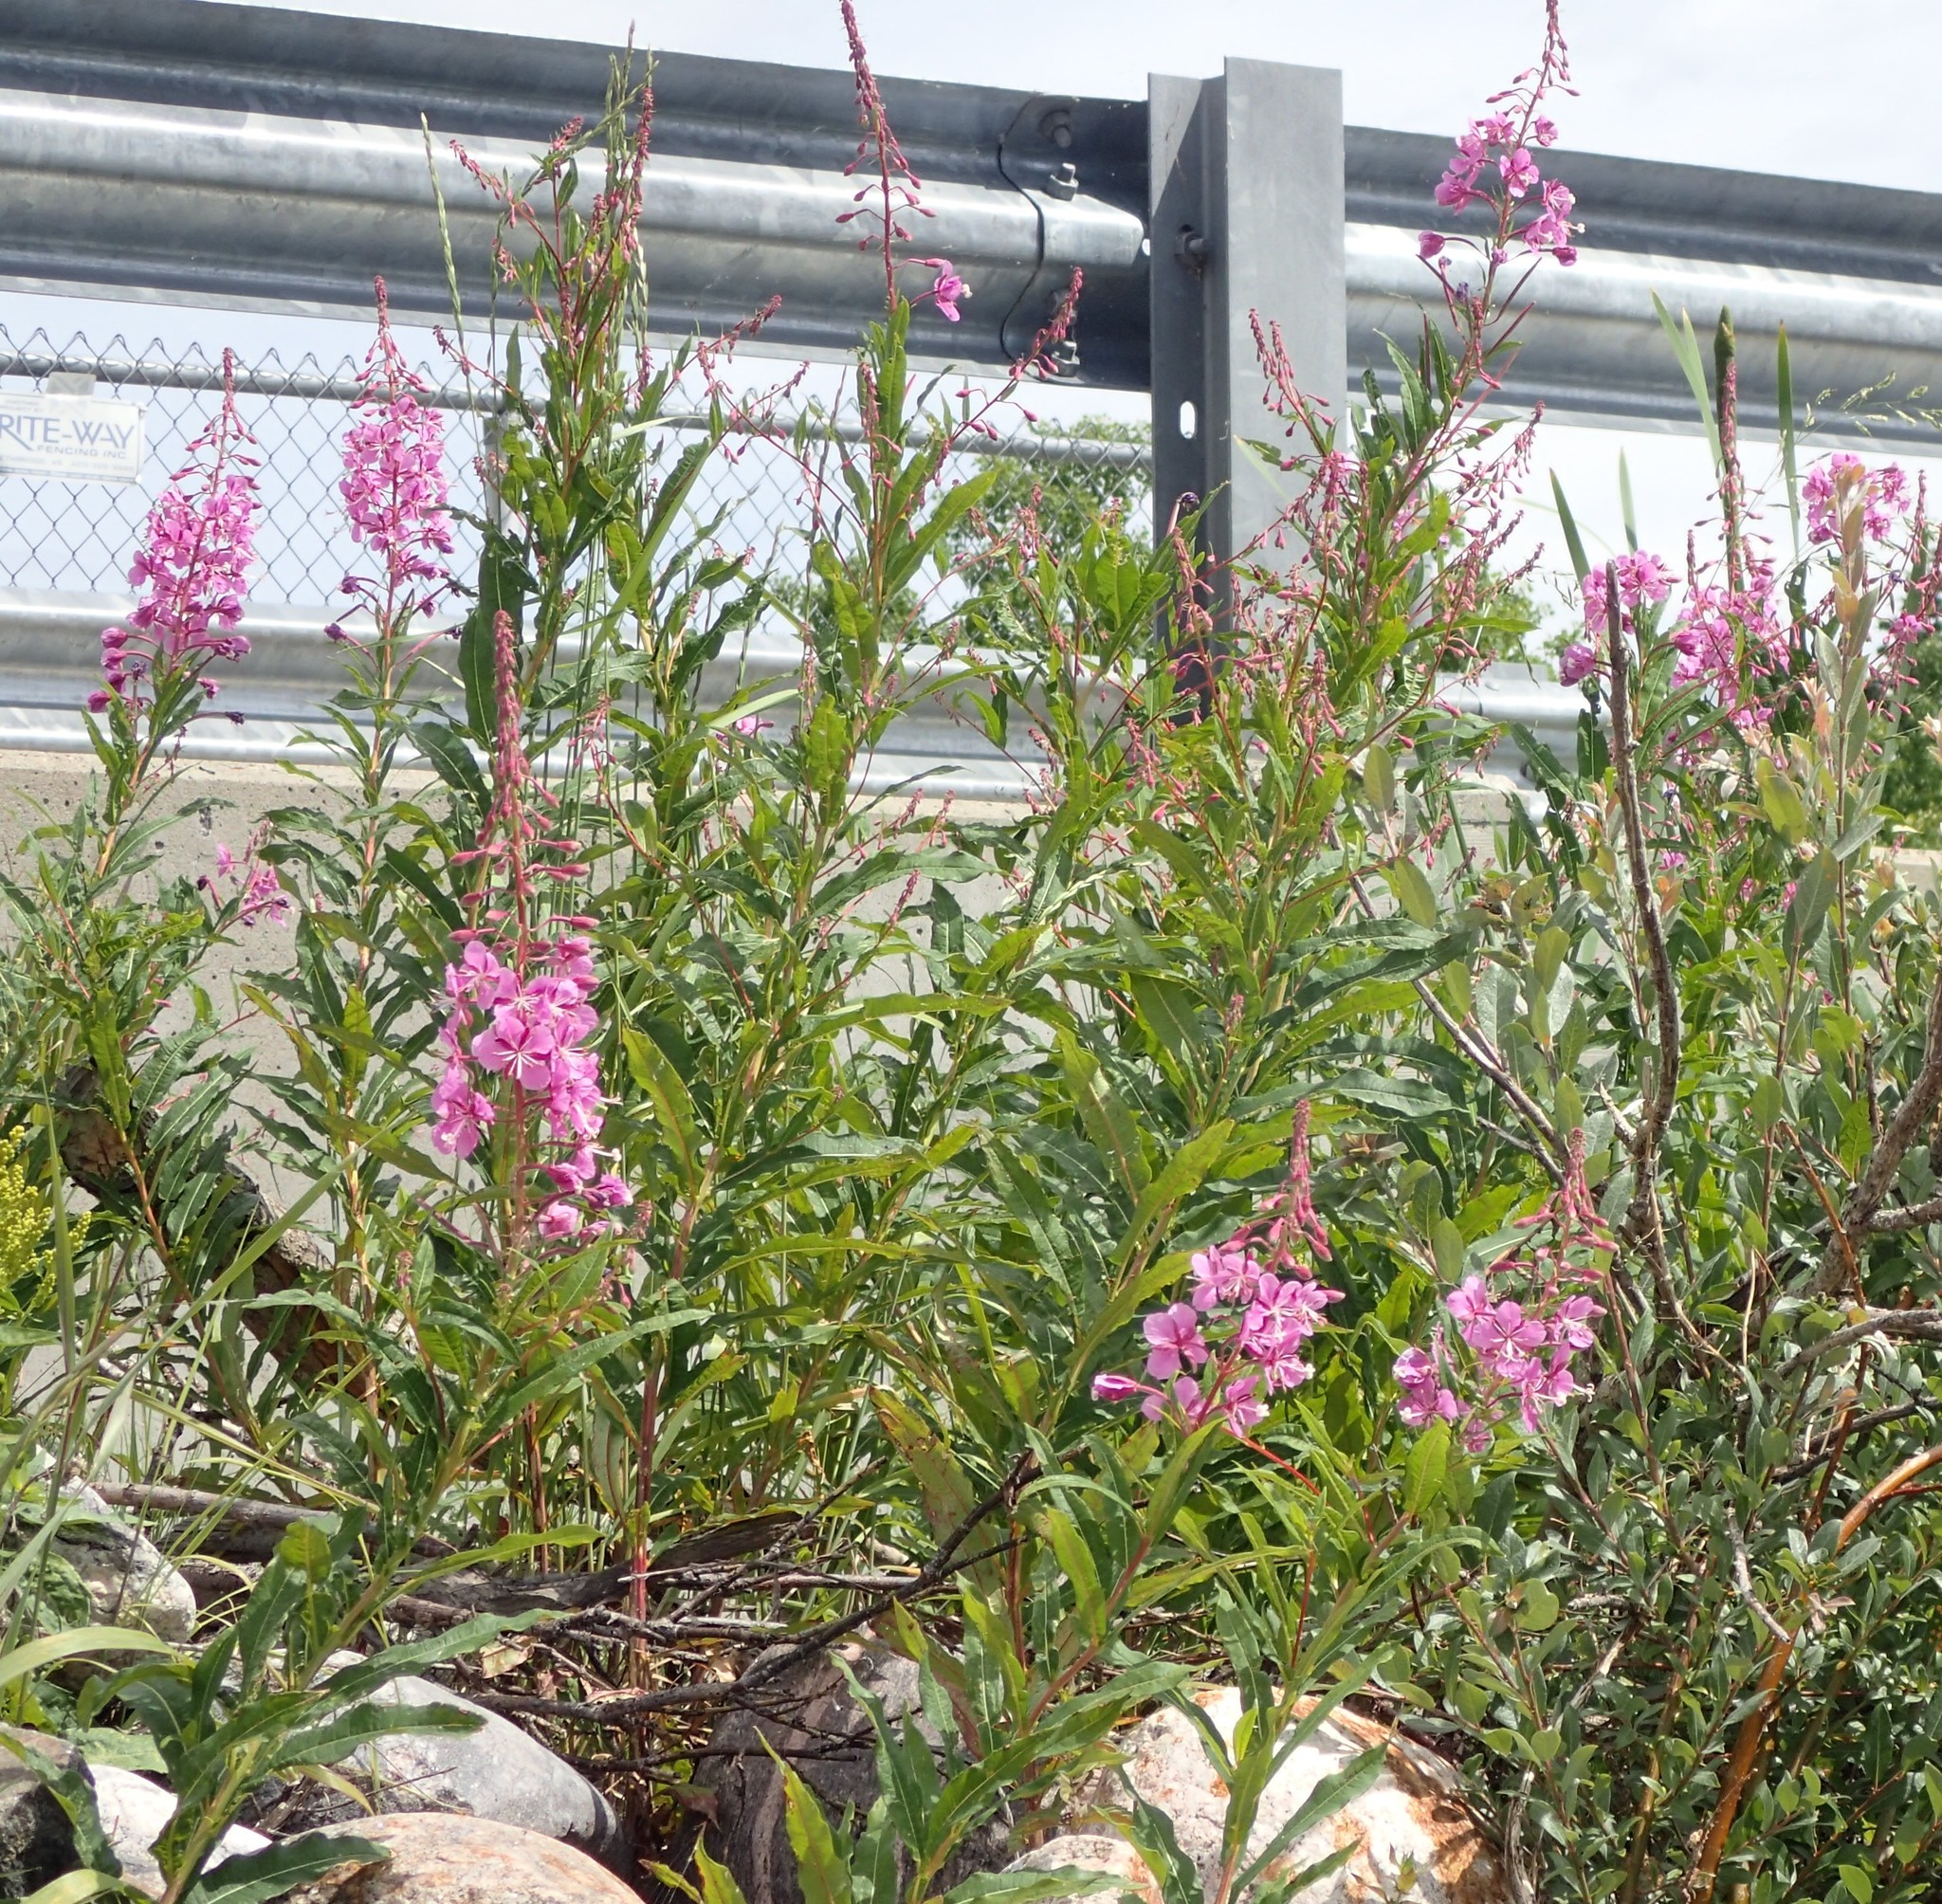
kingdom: Plantae
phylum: Tracheophyta
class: Magnoliopsida
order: Myrtales
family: Onagraceae
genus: Chamaenerion
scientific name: Chamaenerion angustifolium
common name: Fireweed
